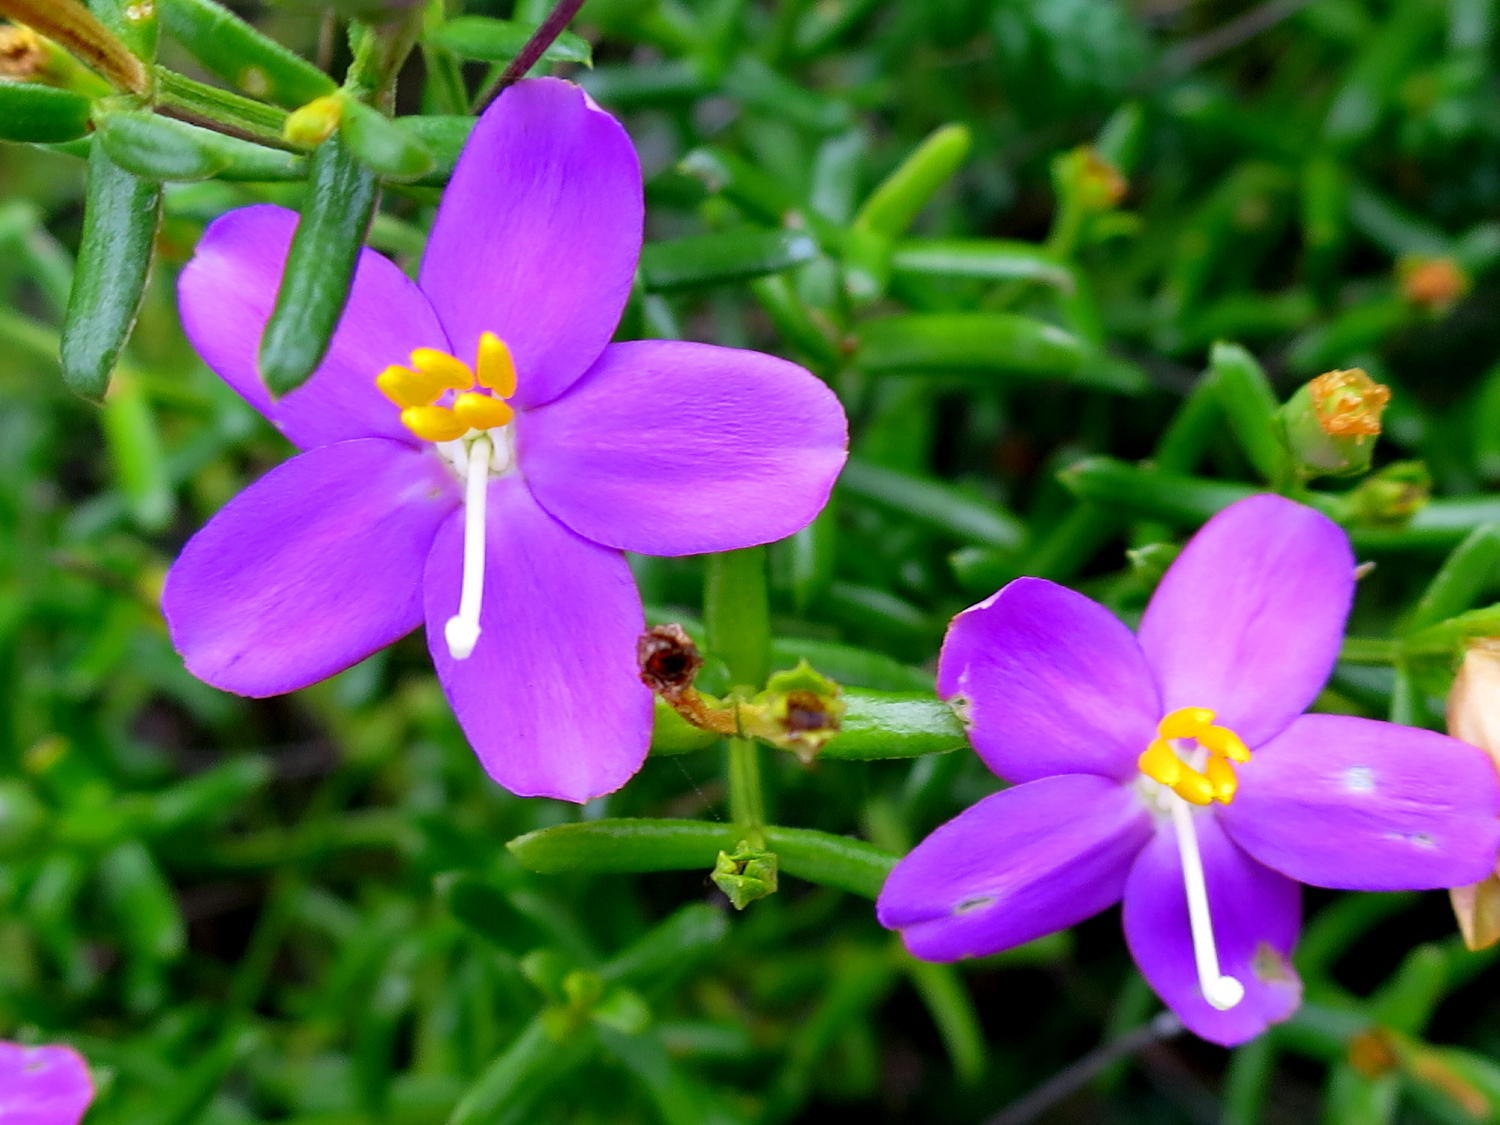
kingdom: Plantae
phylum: Tracheophyta
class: Magnoliopsida
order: Gentianales
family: Gentianaceae
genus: Chironia
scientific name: Chironia baccifera
